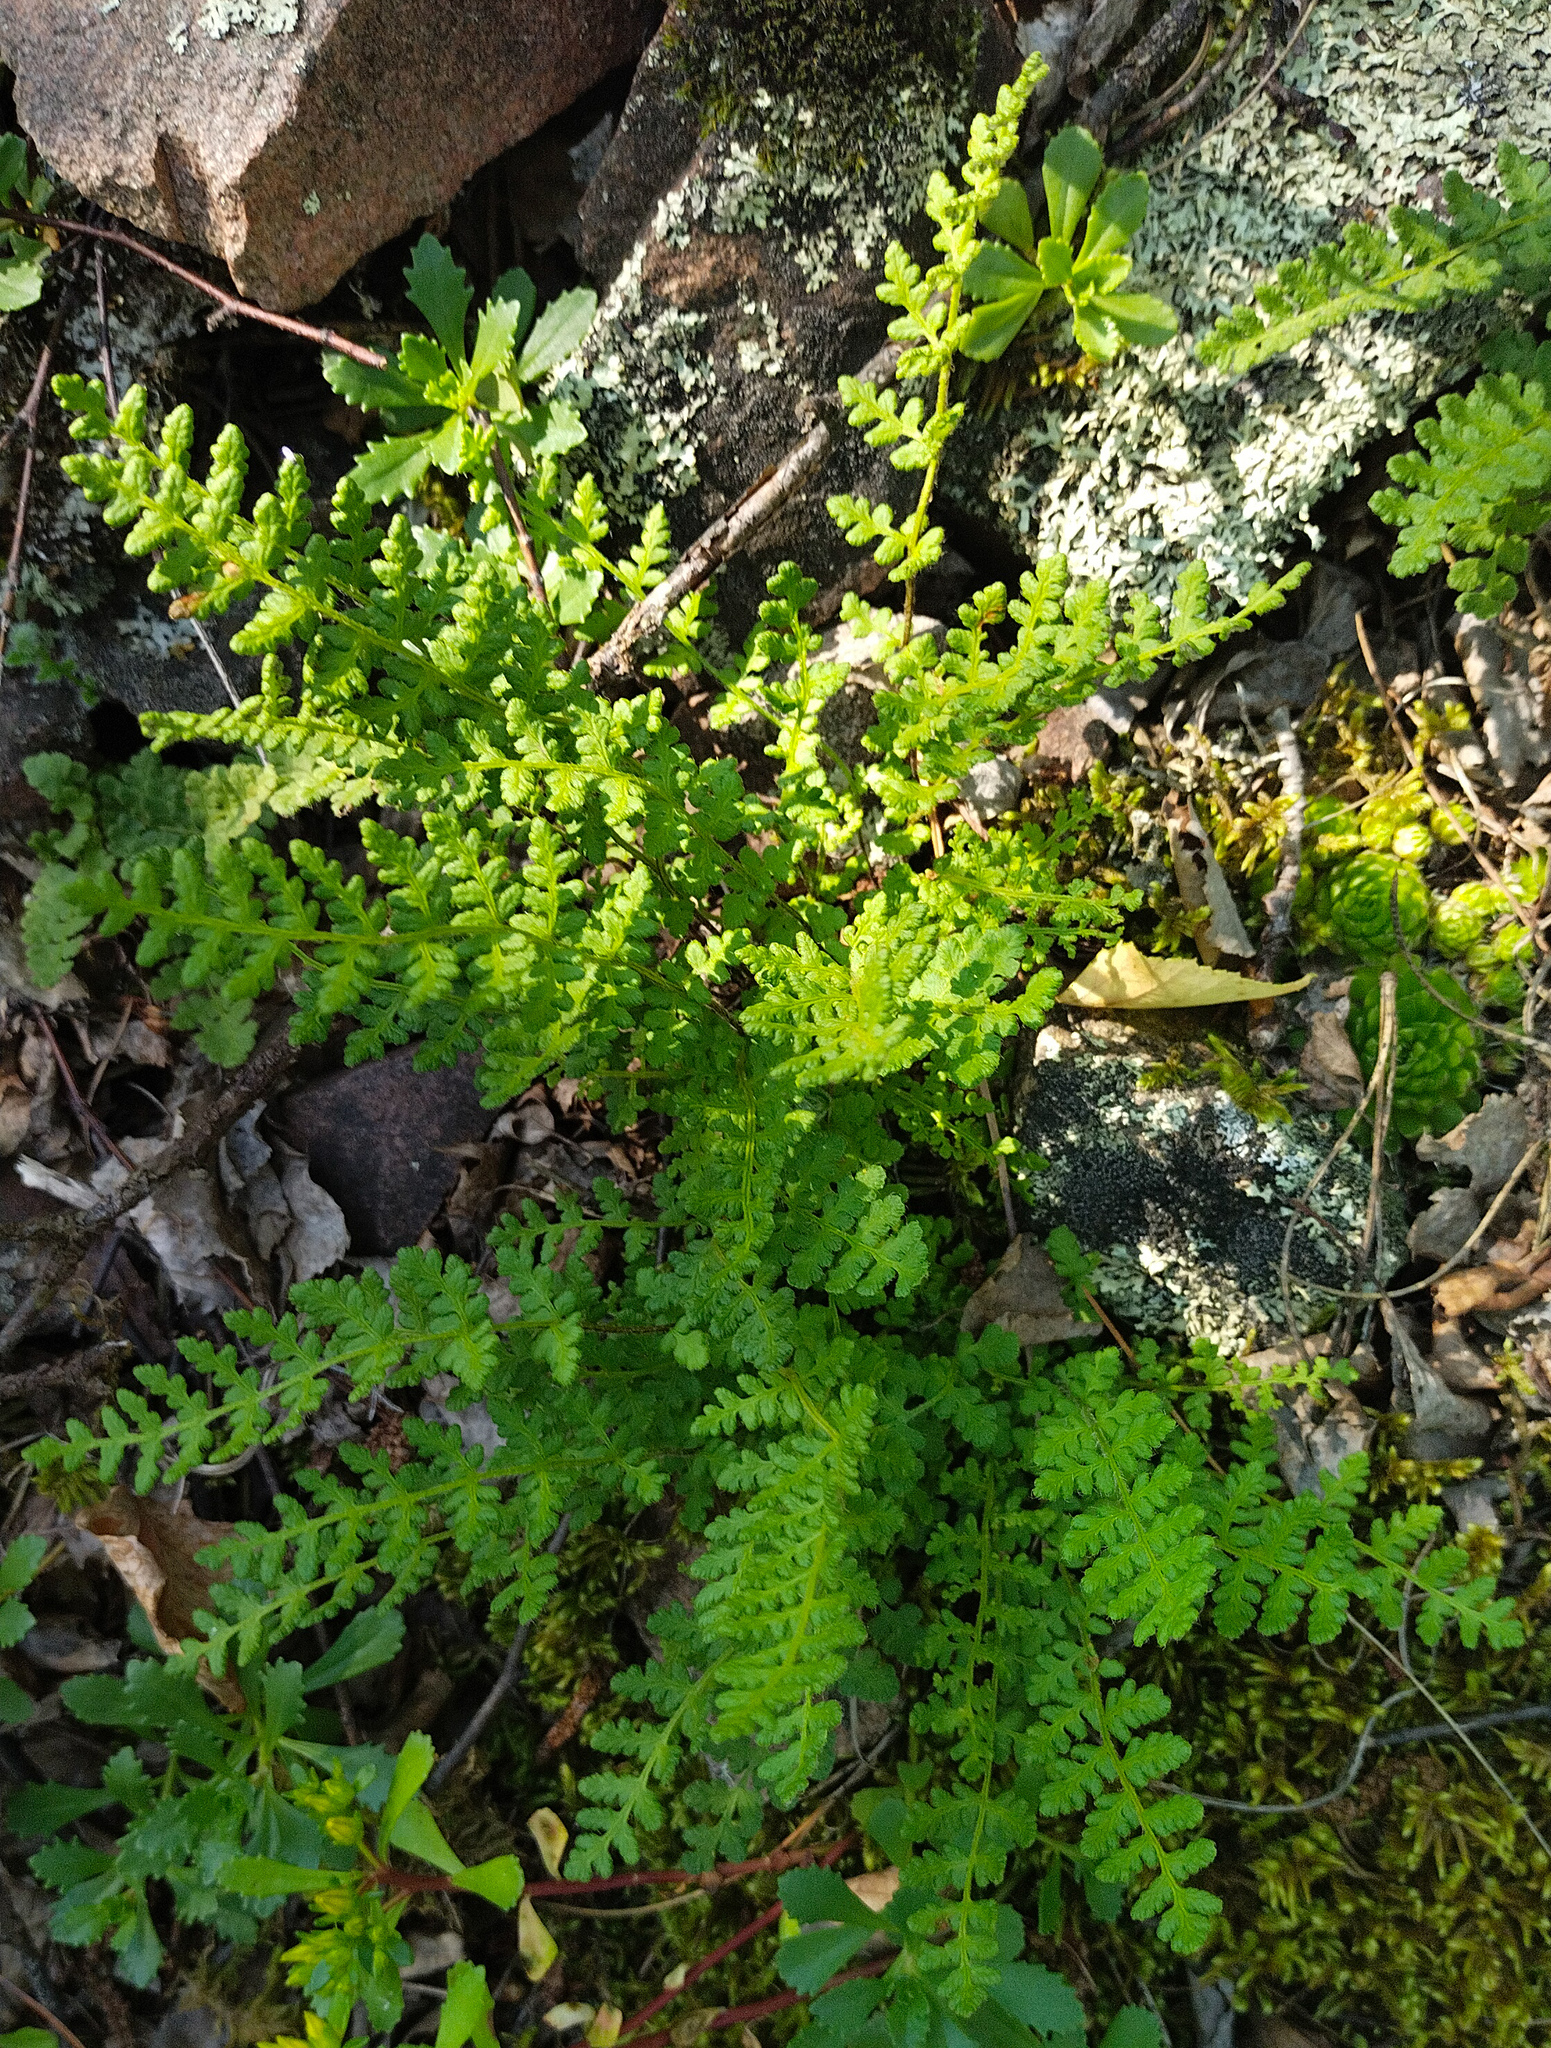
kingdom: Plantae
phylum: Tracheophyta
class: Polypodiopsida
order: Polypodiales
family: Woodsiaceae
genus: Woodsia
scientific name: Woodsia ilvensis
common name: Fragrant woodsia
